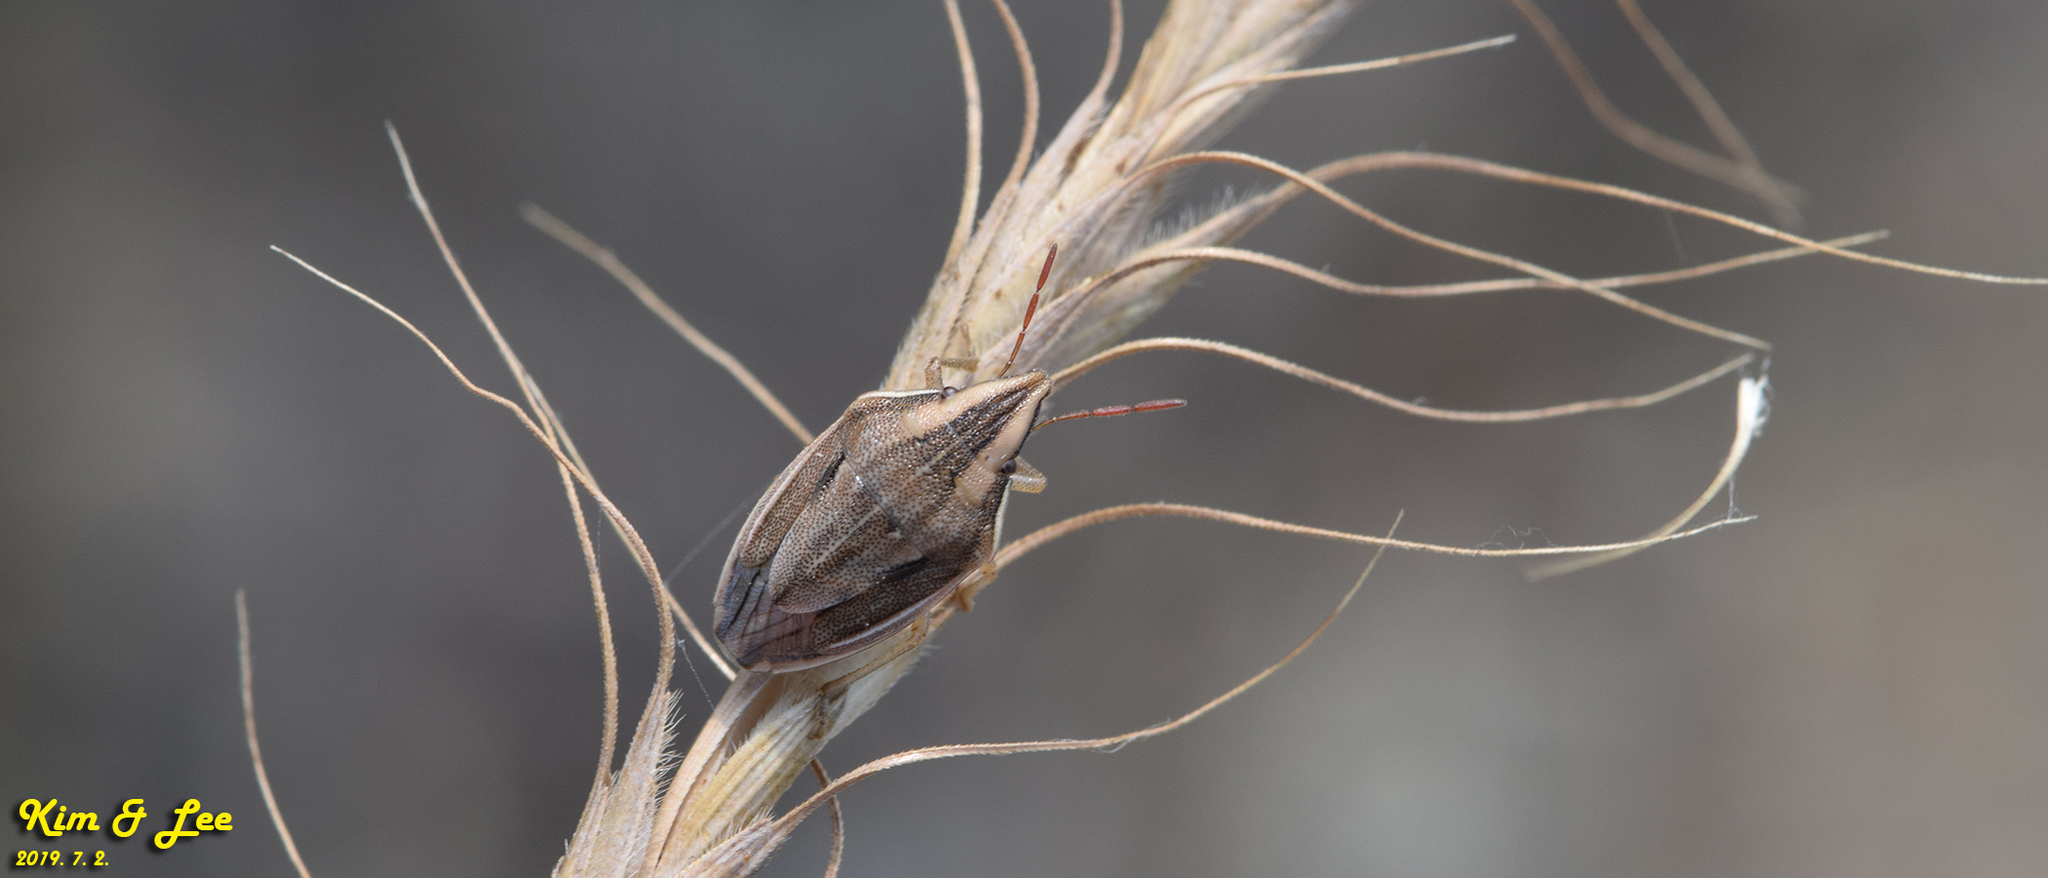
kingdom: Animalia
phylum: Arthropoda
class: Insecta
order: Hemiptera
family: Pentatomidae
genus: Aelia
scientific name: Aelia
